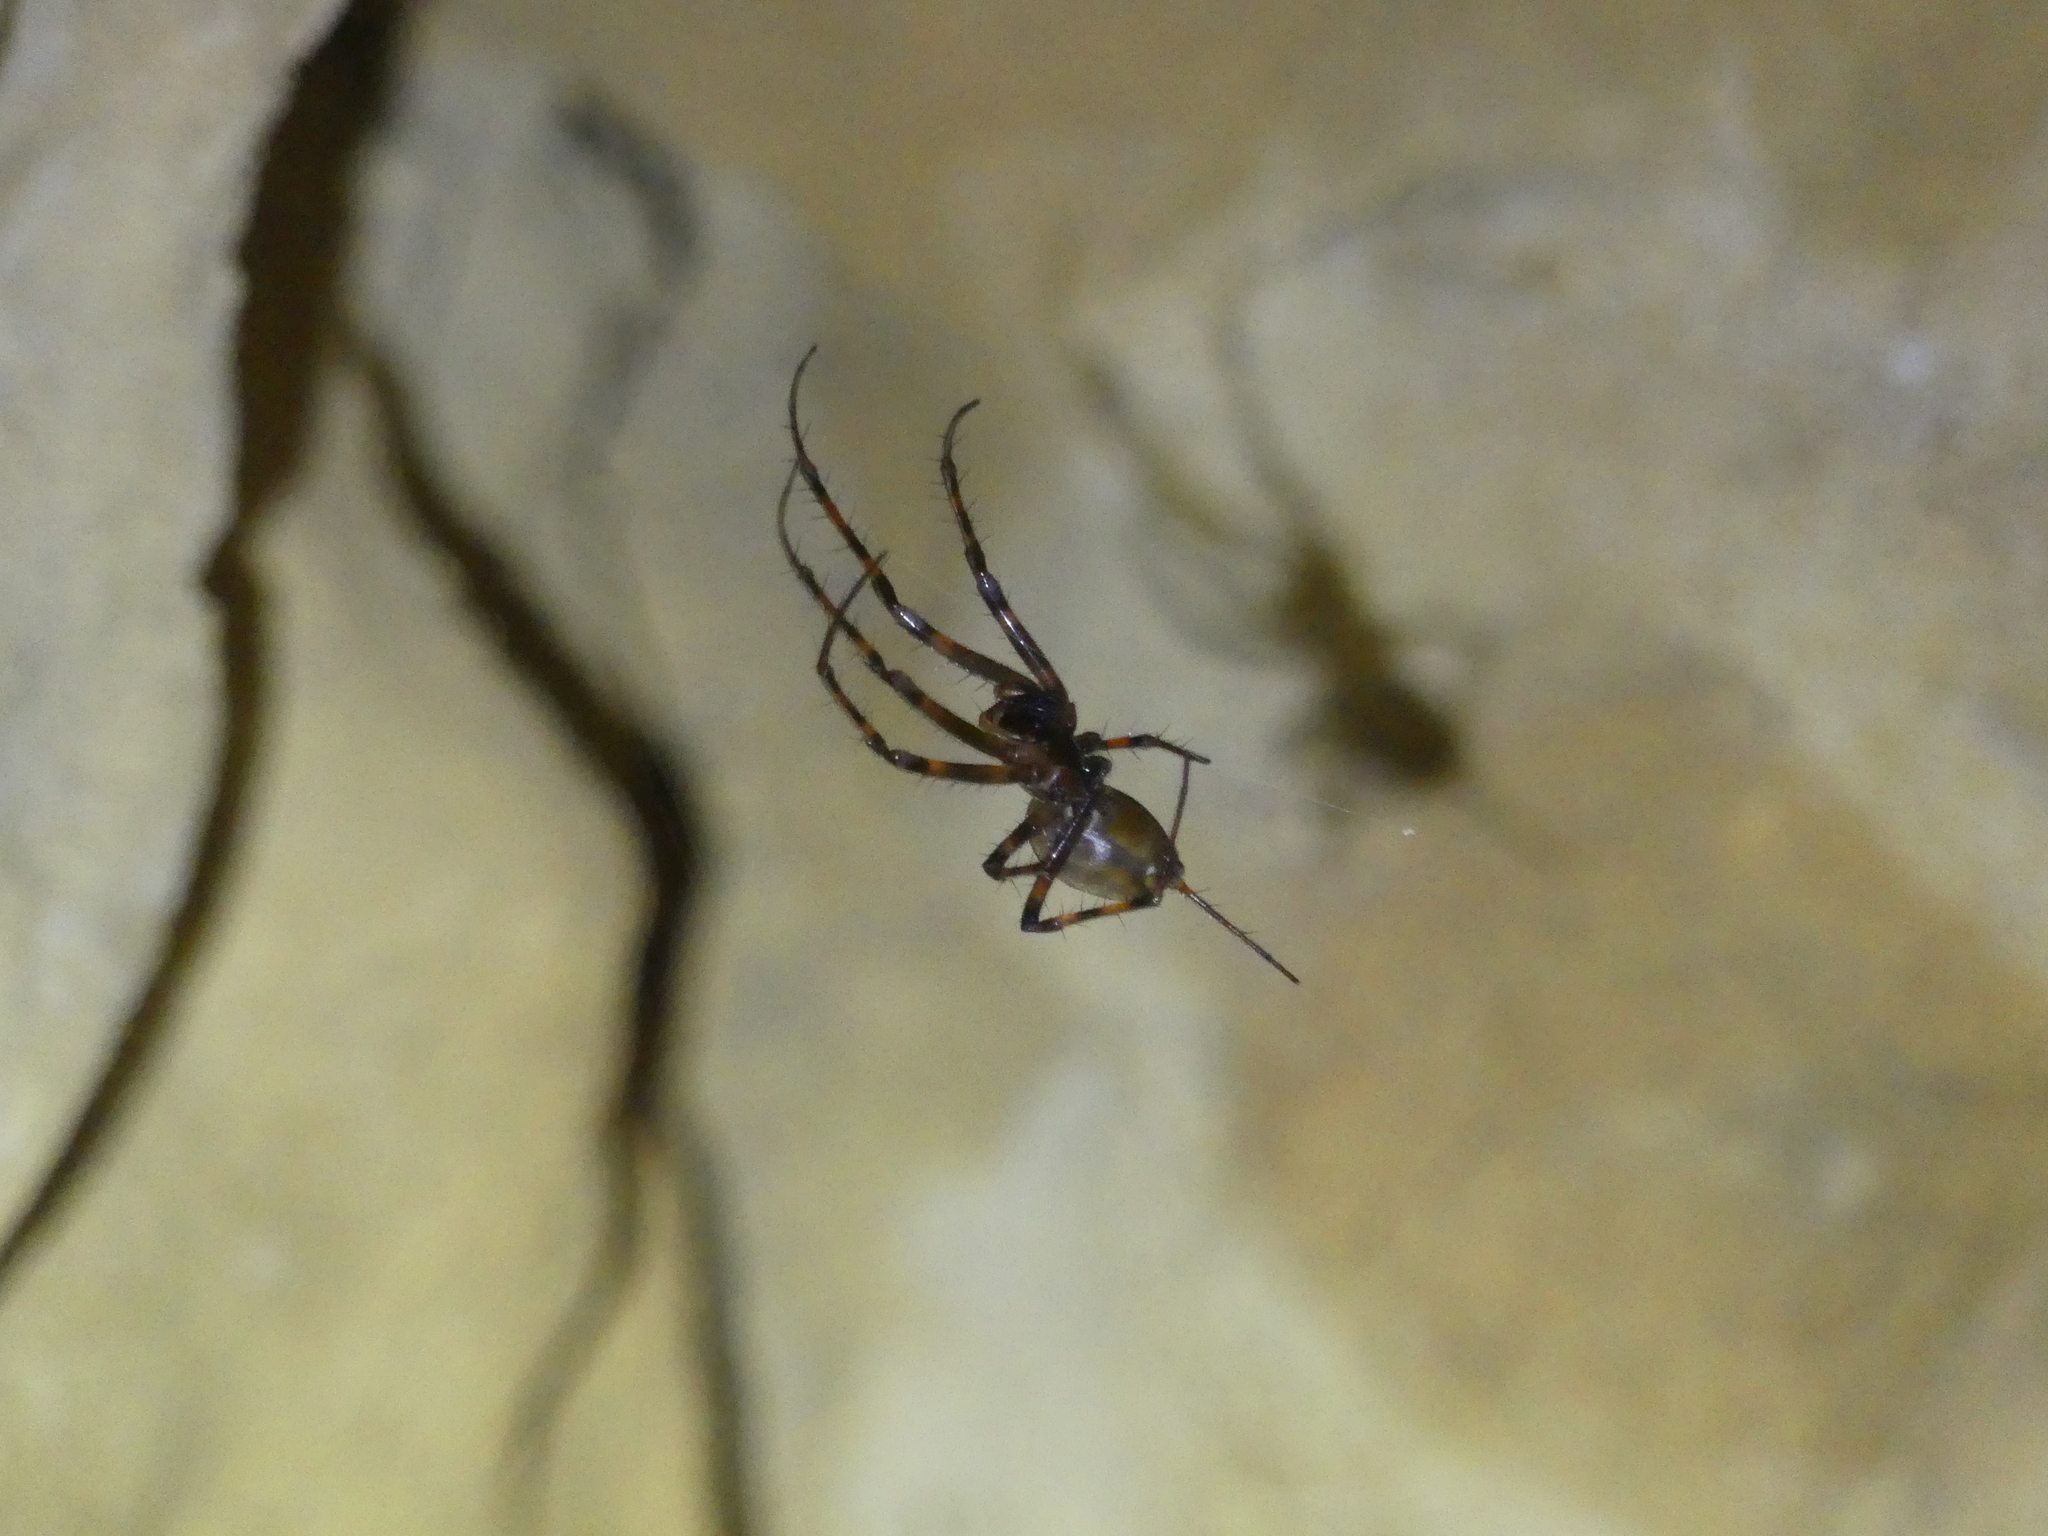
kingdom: Animalia
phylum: Arthropoda
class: Arachnida
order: Araneae
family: Tetragnathidae
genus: Meta
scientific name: Meta menardi
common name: Cave spider
